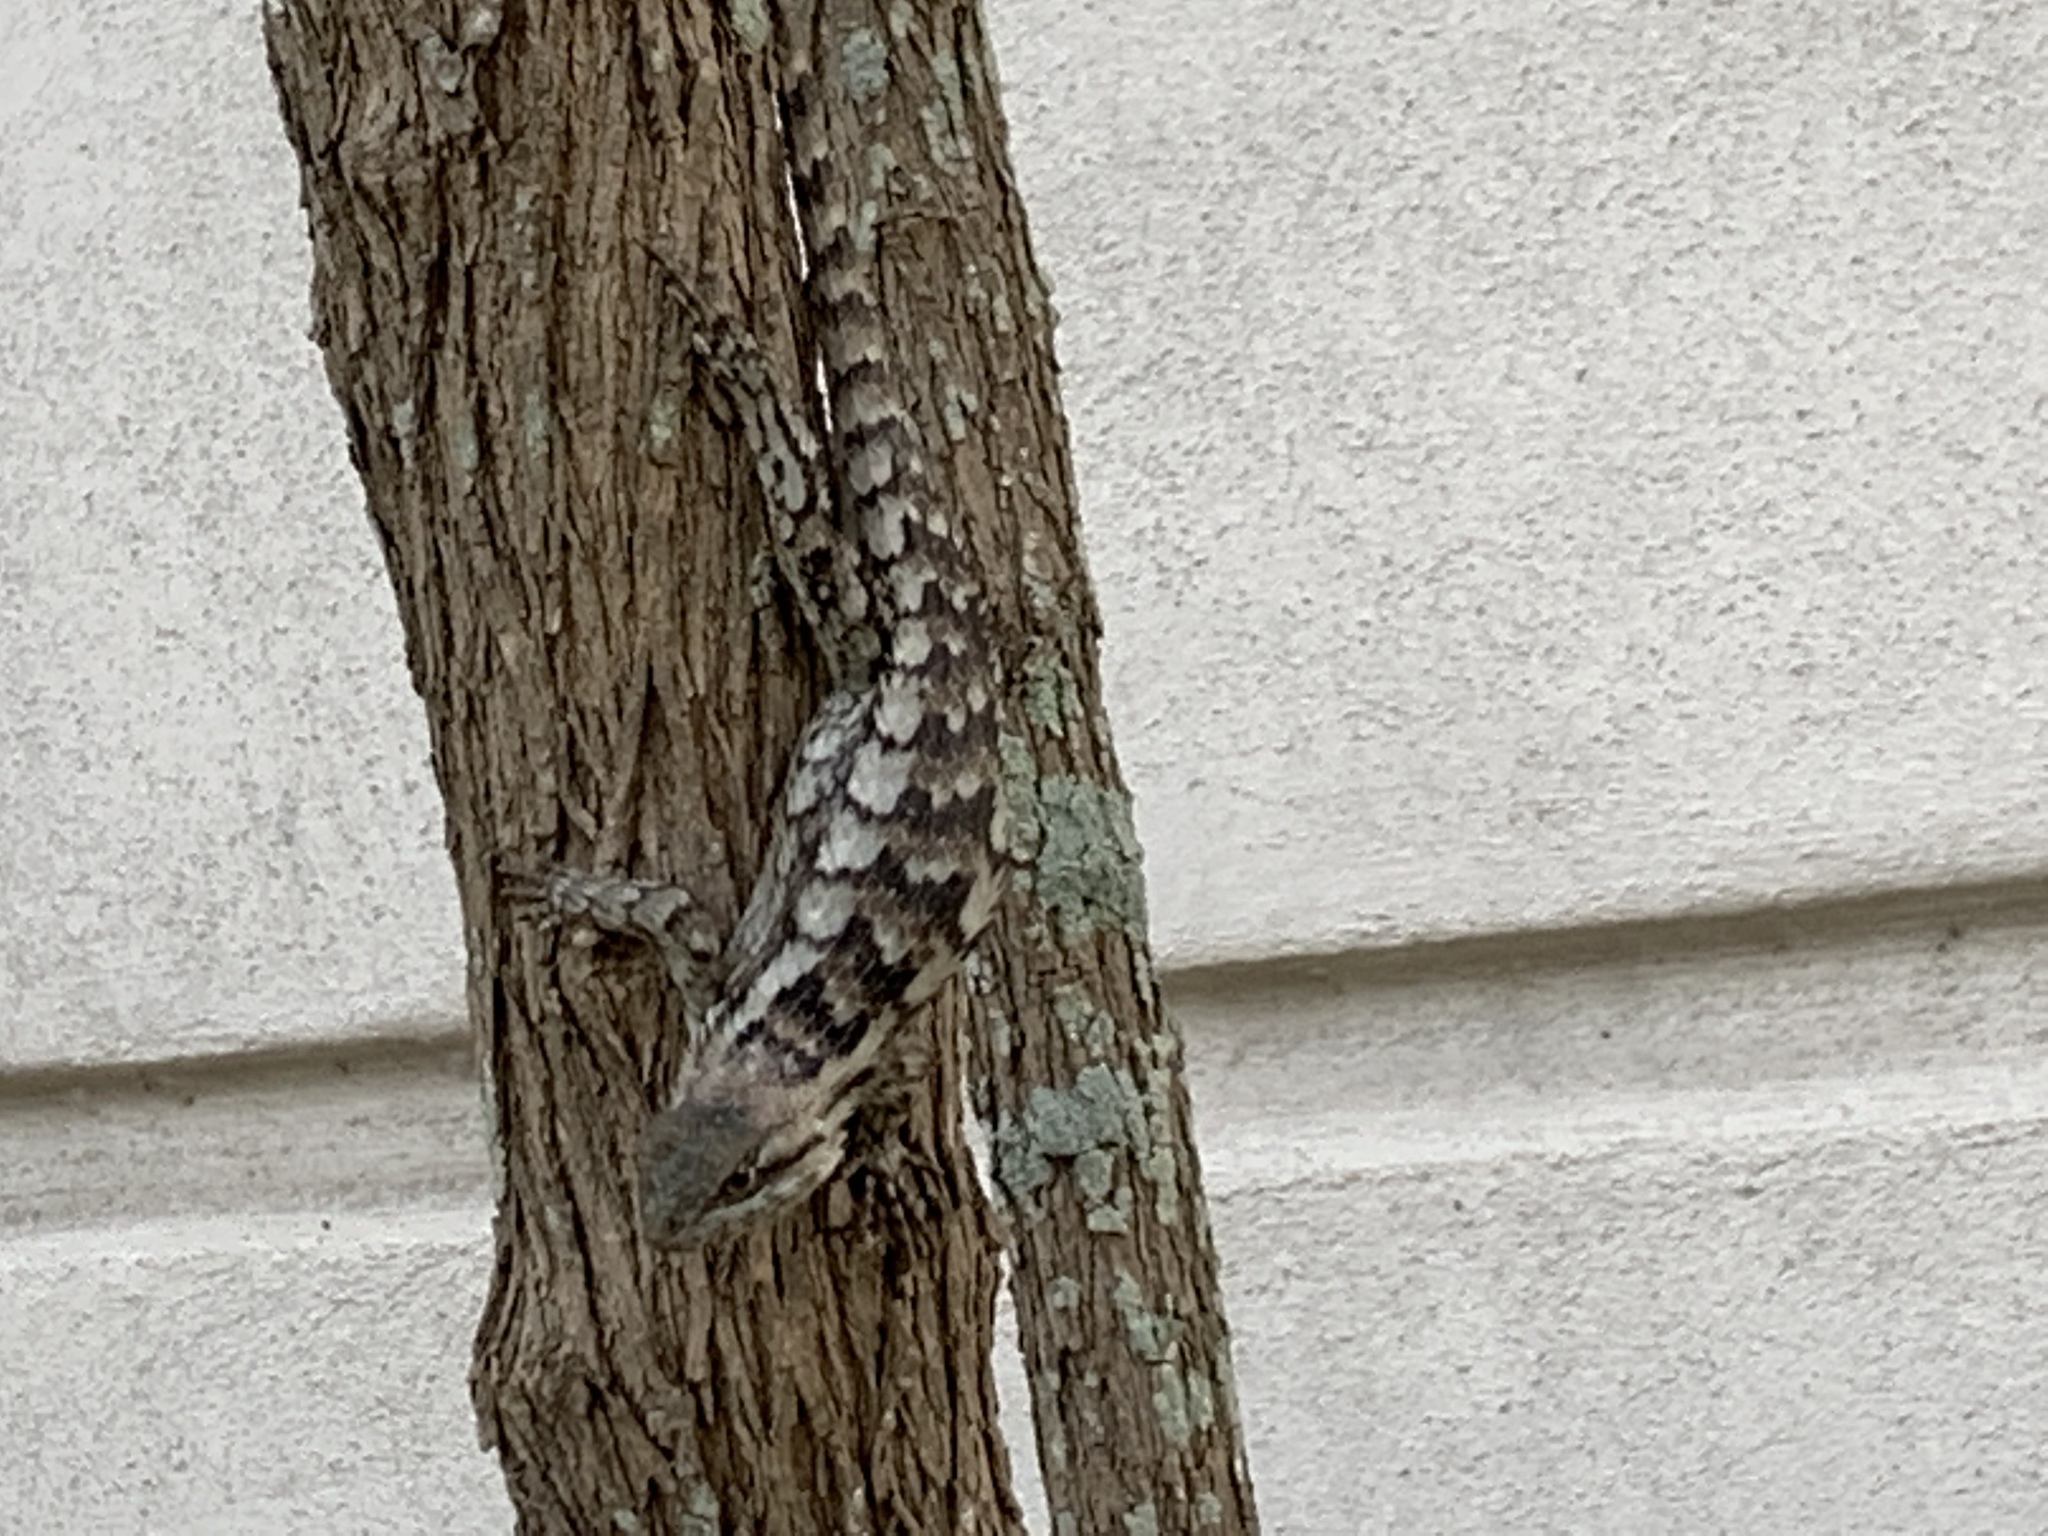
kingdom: Animalia
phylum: Chordata
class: Squamata
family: Phrynosomatidae
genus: Sceloporus
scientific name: Sceloporus olivaceus
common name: Texas spiny lizard
